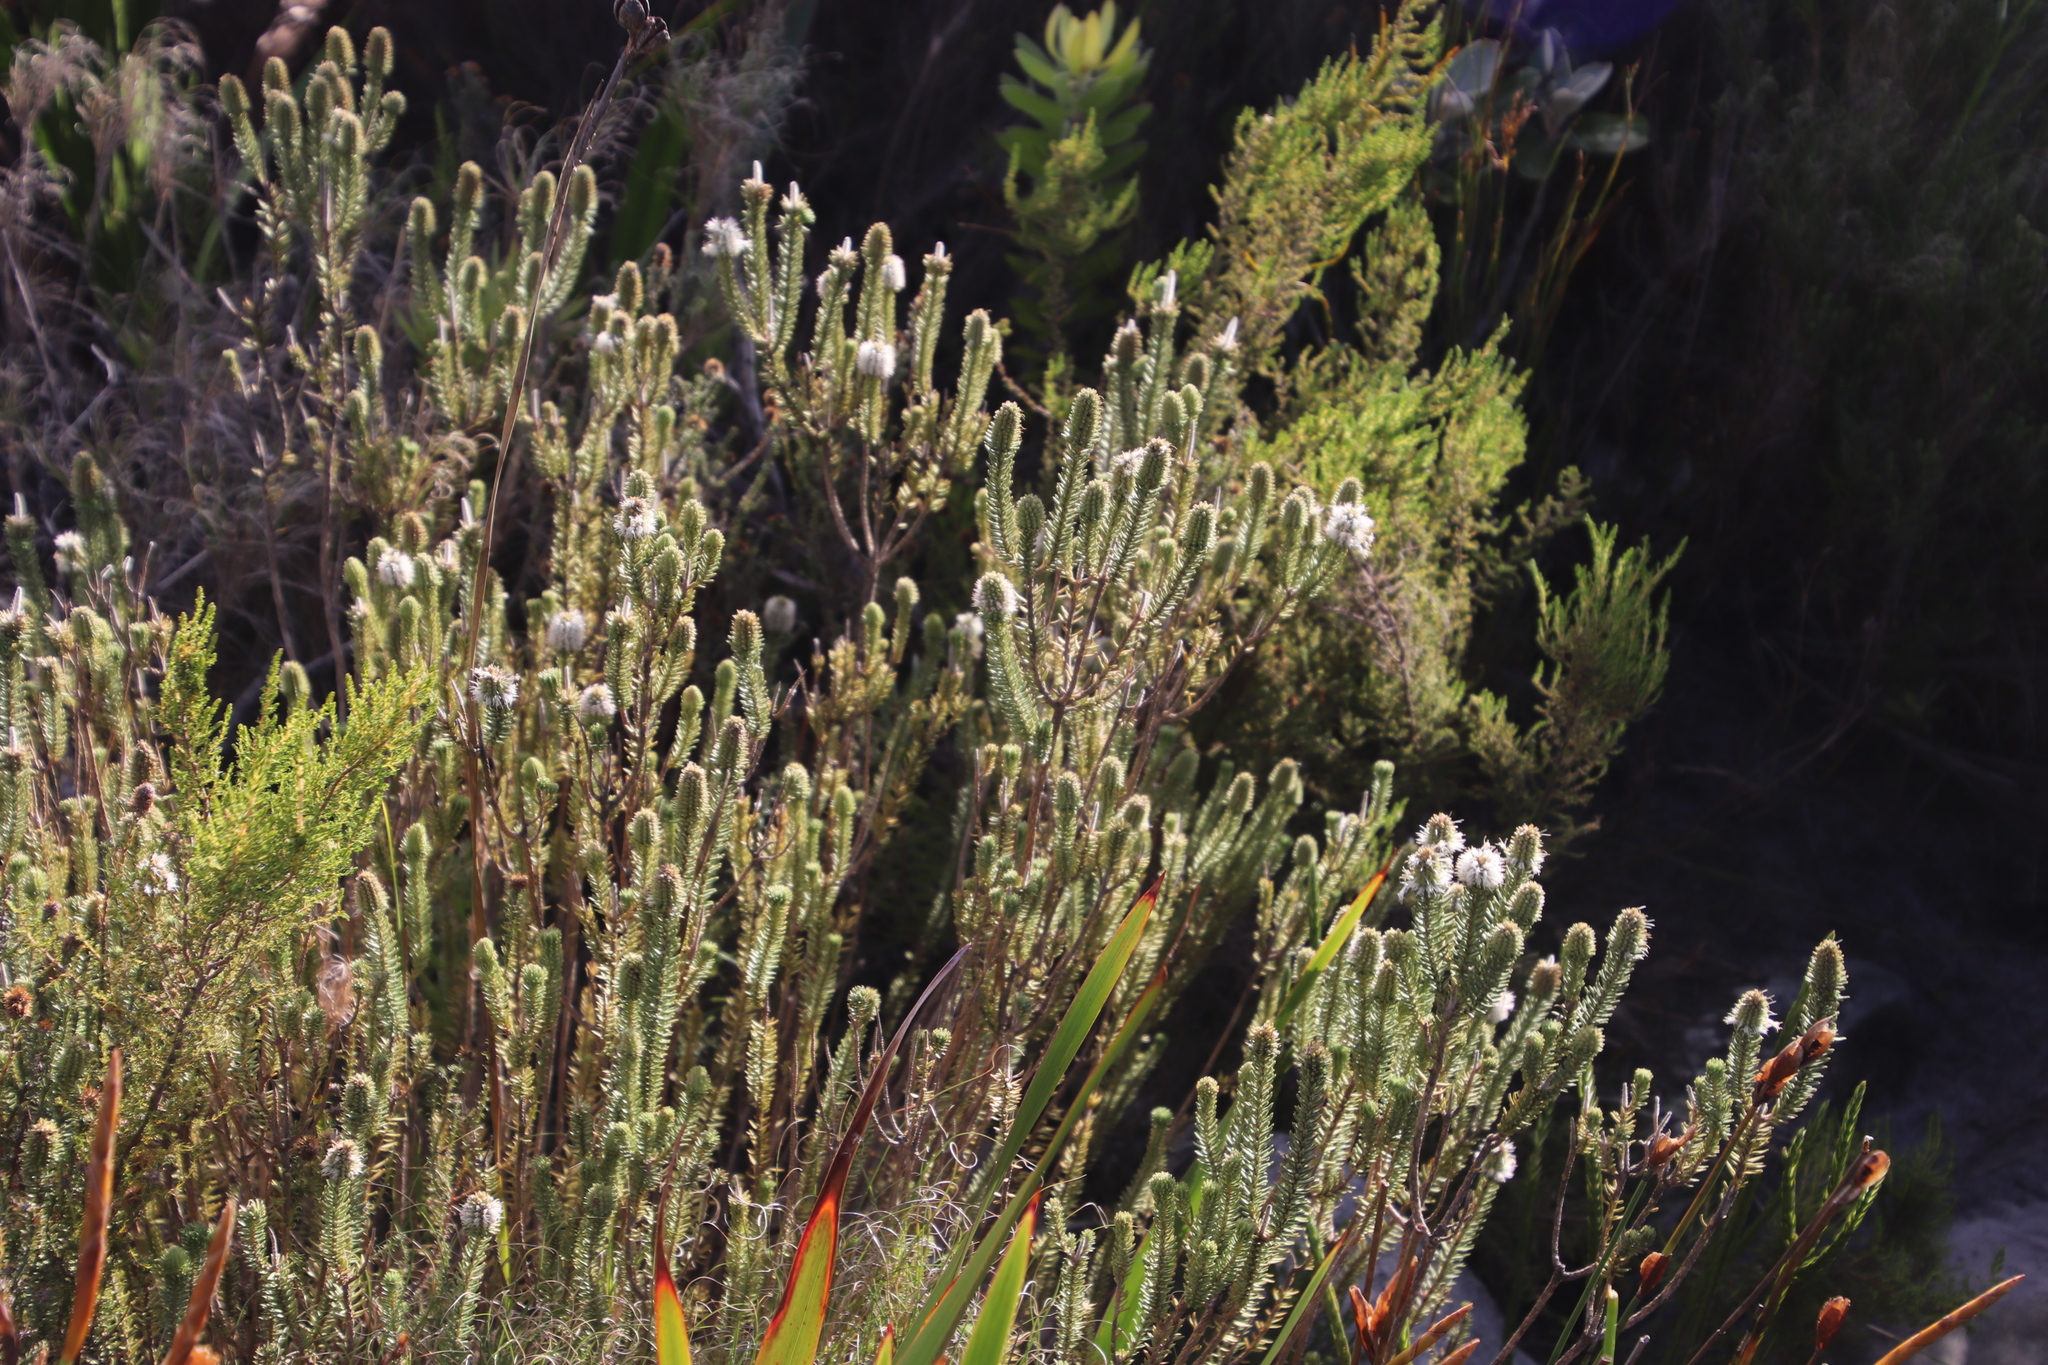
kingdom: Plantae
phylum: Tracheophyta
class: Magnoliopsida
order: Lamiales
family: Stilbaceae
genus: Stilbe
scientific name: Stilbe vestita
